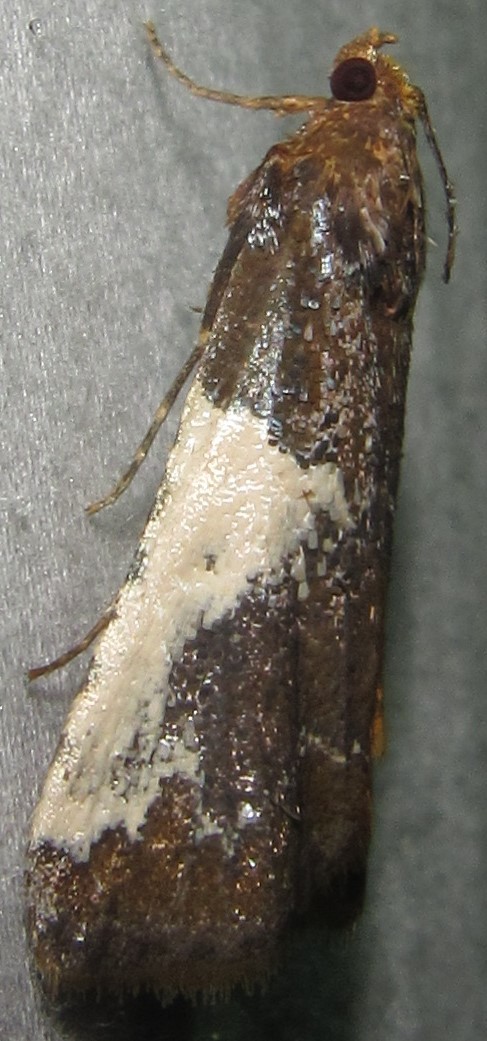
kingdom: Animalia
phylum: Arthropoda
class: Insecta
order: Lepidoptera
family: Pyralidae
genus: Pithyllis
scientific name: Pithyllis metachryseis
